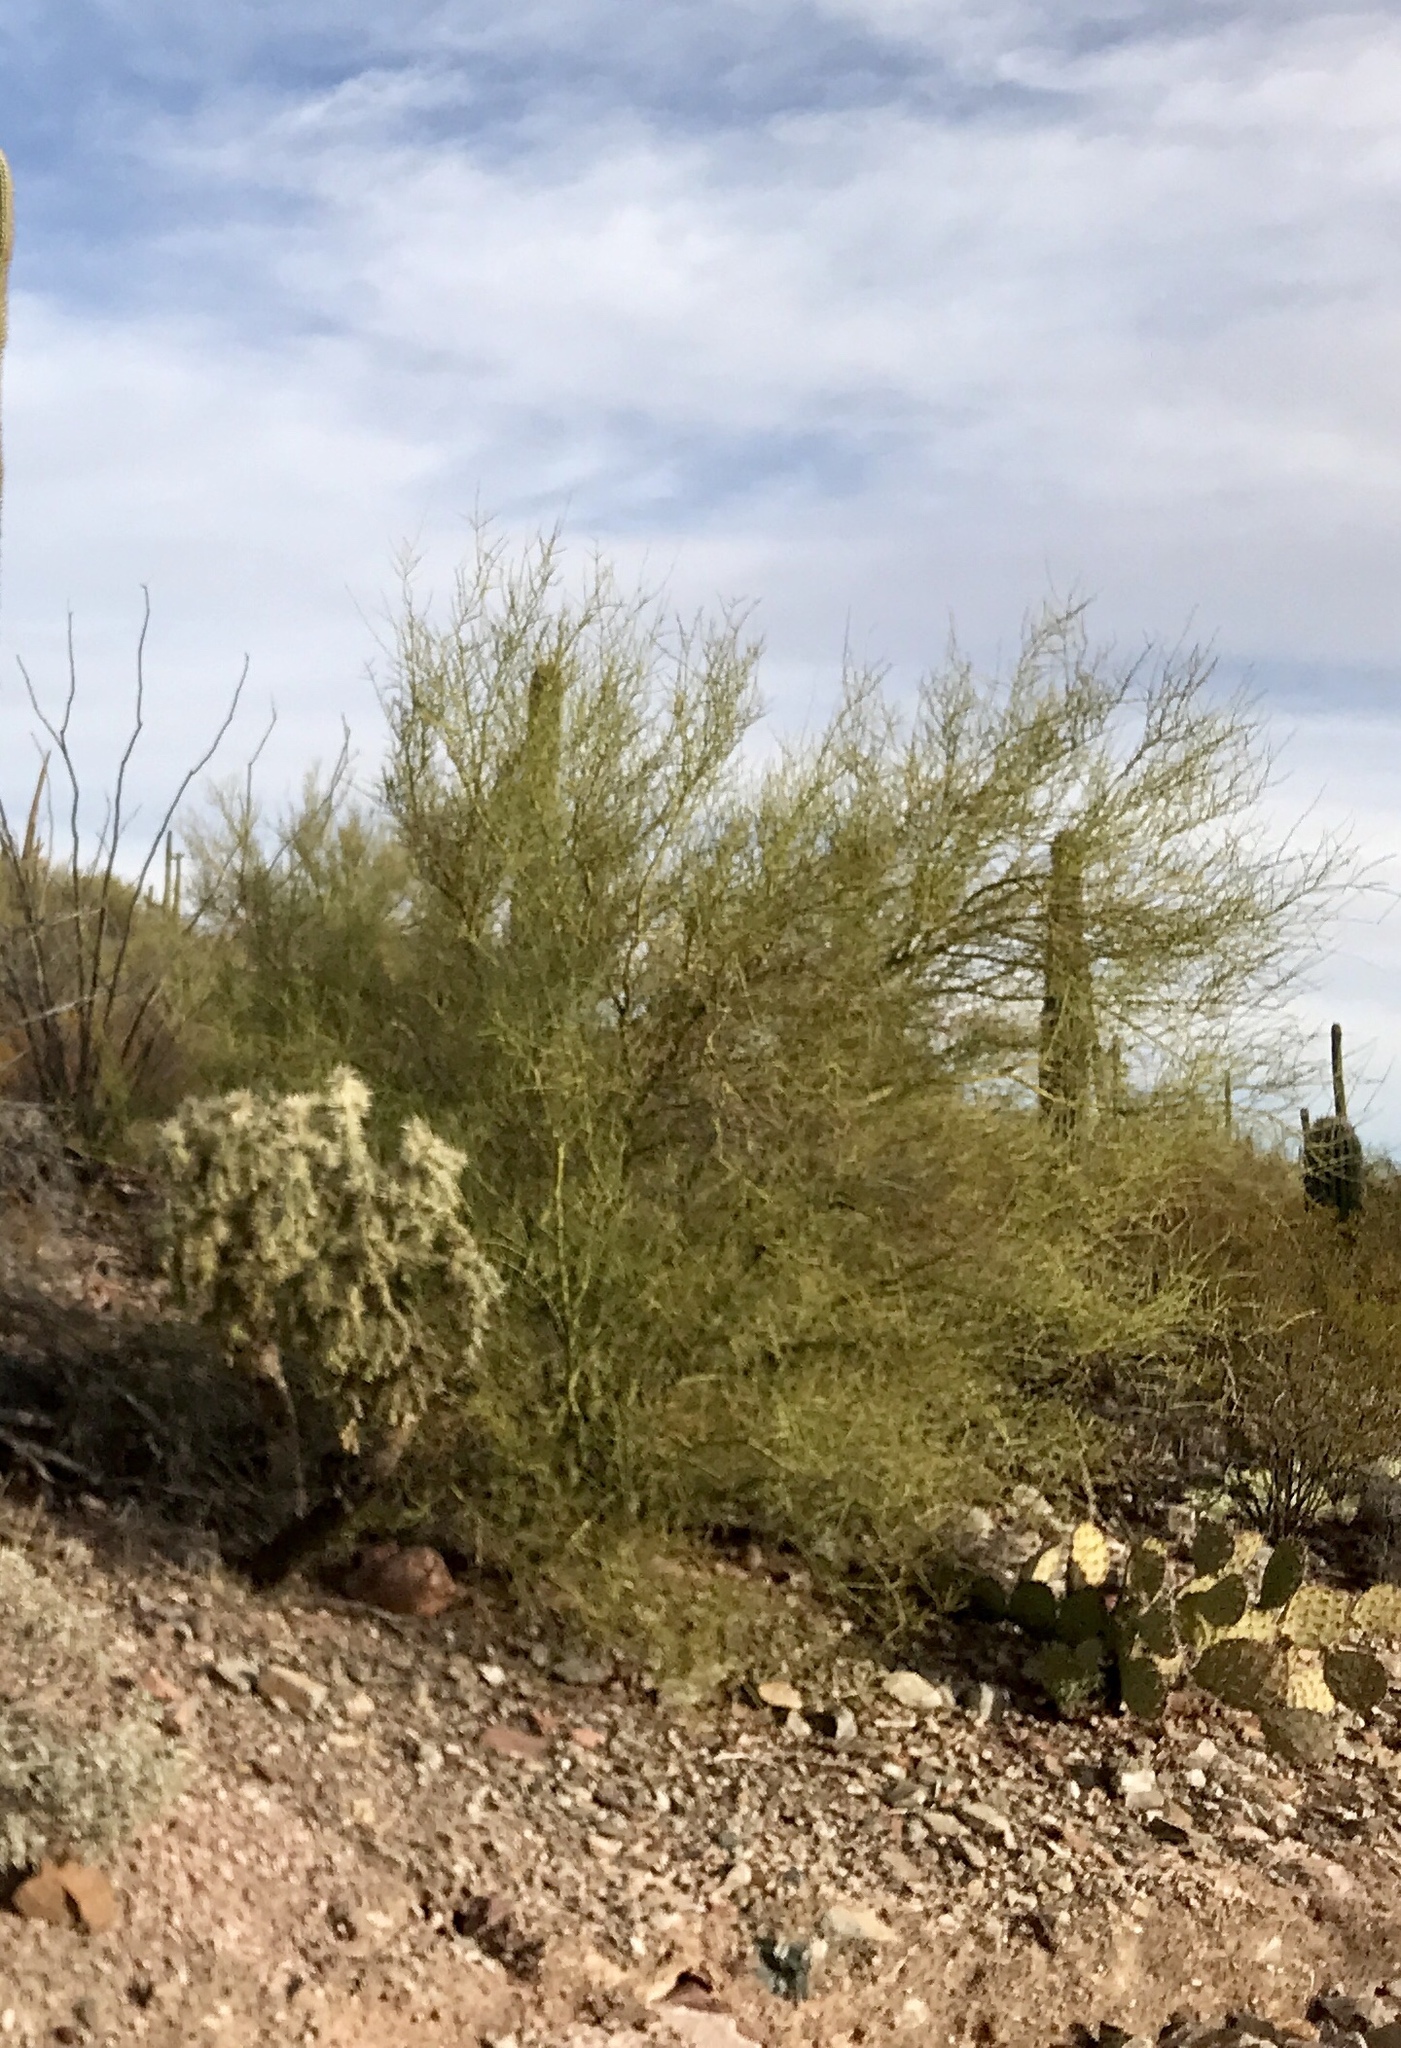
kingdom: Plantae
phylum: Tracheophyta
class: Magnoliopsida
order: Fabales
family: Fabaceae
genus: Parkinsonia
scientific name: Parkinsonia microphylla
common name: Yellow paloverde
